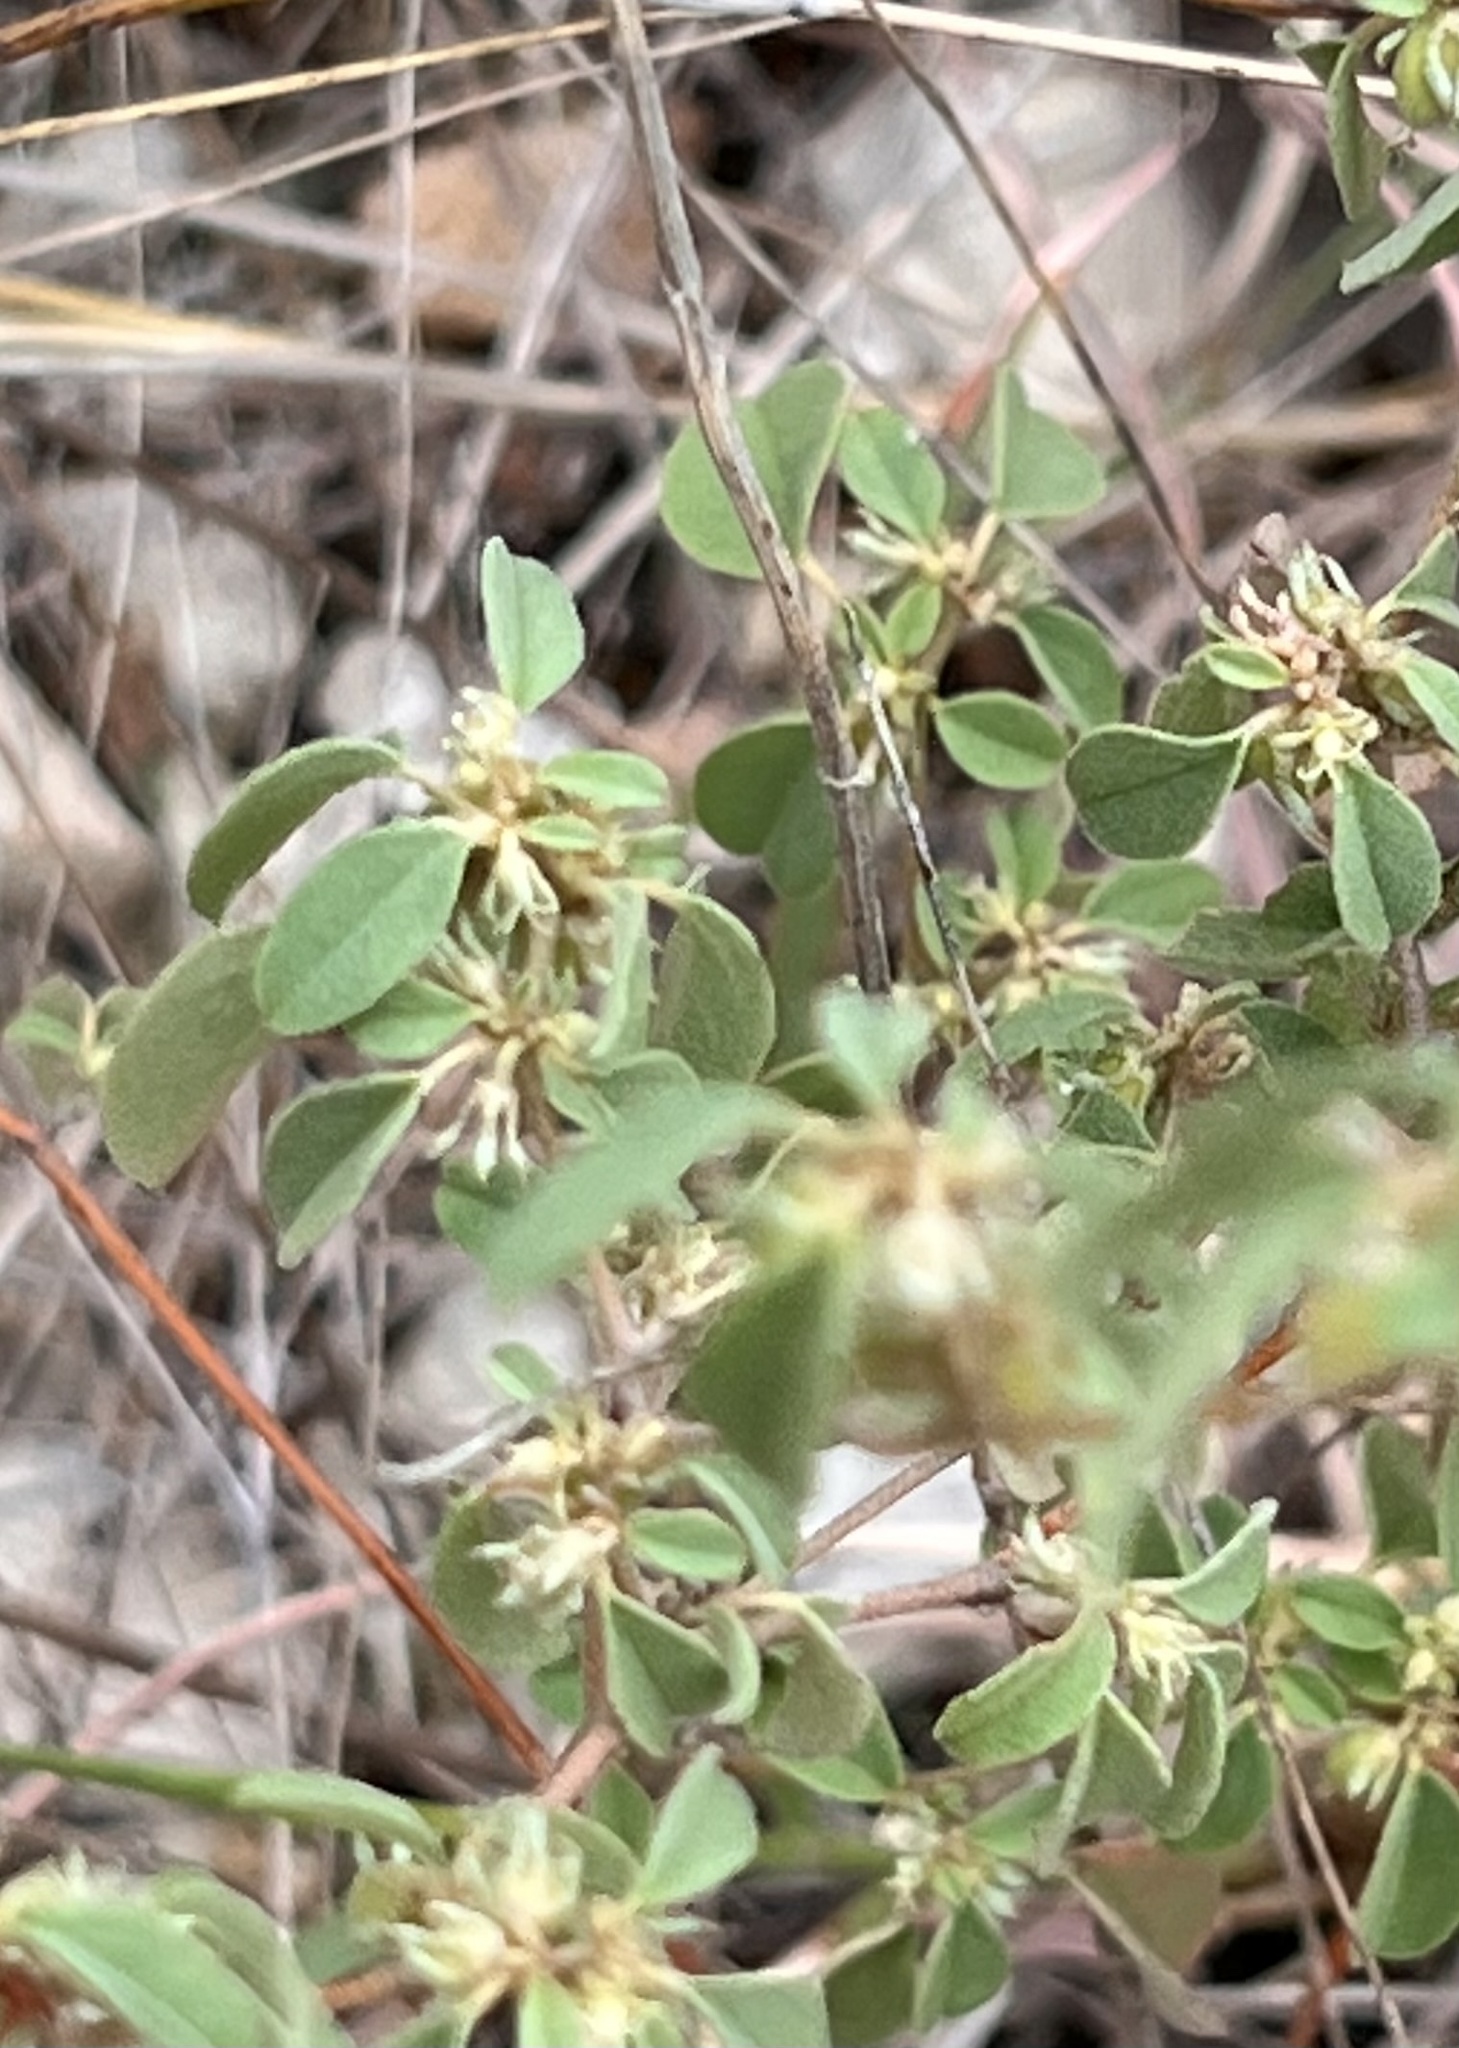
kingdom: Plantae
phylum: Tracheophyta
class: Magnoliopsida
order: Malpighiales
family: Euphorbiaceae
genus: Croton
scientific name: Croton monanthogynus
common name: One-seed croton
